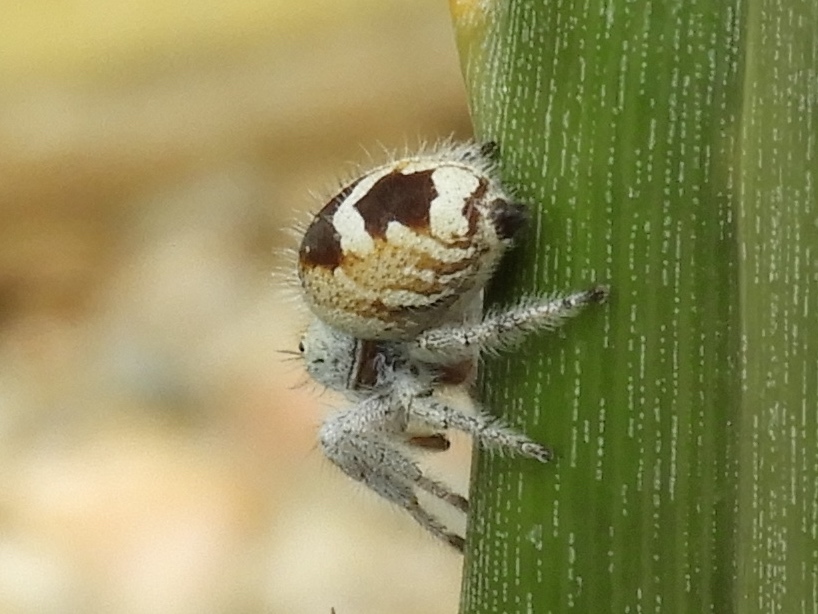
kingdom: Animalia
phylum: Arthropoda
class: Arachnida
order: Araneae
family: Salticidae
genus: Phidippus
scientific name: Phidippus pacosauritus
